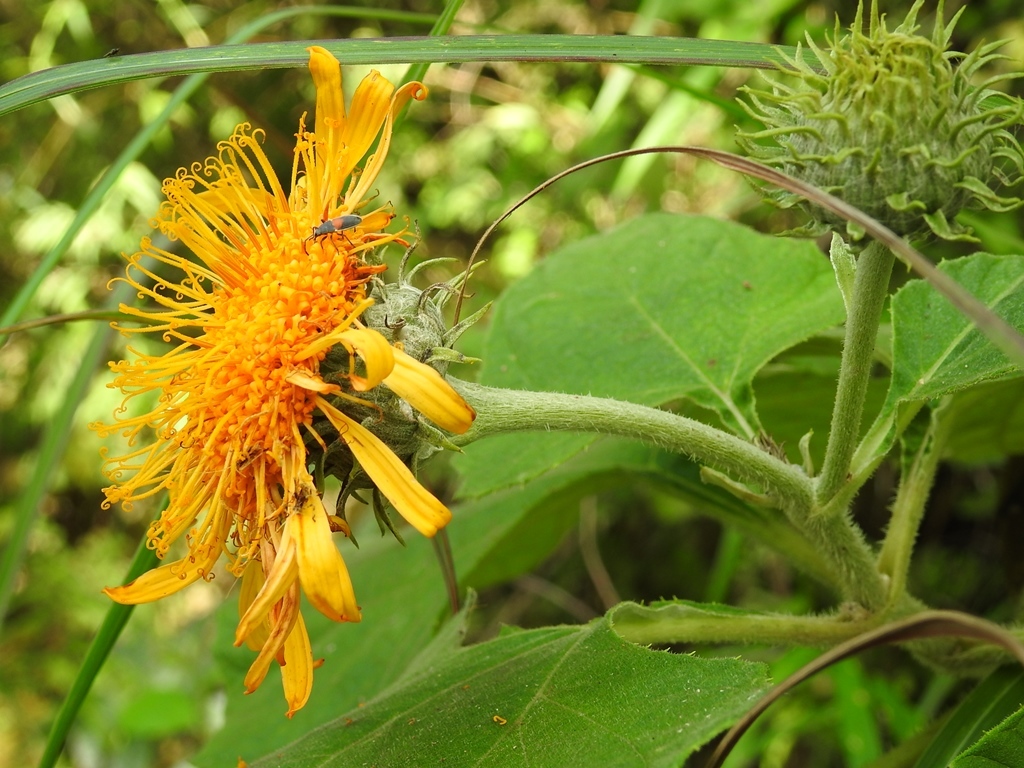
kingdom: Plantae
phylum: Tracheophyta
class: Magnoliopsida
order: Asterales
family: Asteraceae
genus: Sinclairia
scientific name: Sinclairia andrieuxii
